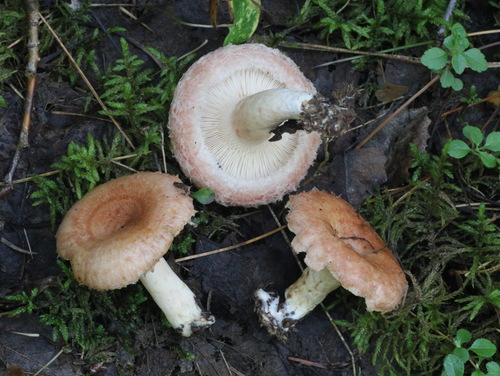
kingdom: Fungi
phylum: Basidiomycota
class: Agaricomycetes
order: Russulales
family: Russulaceae
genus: Lactarius
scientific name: Lactarius torminosus
